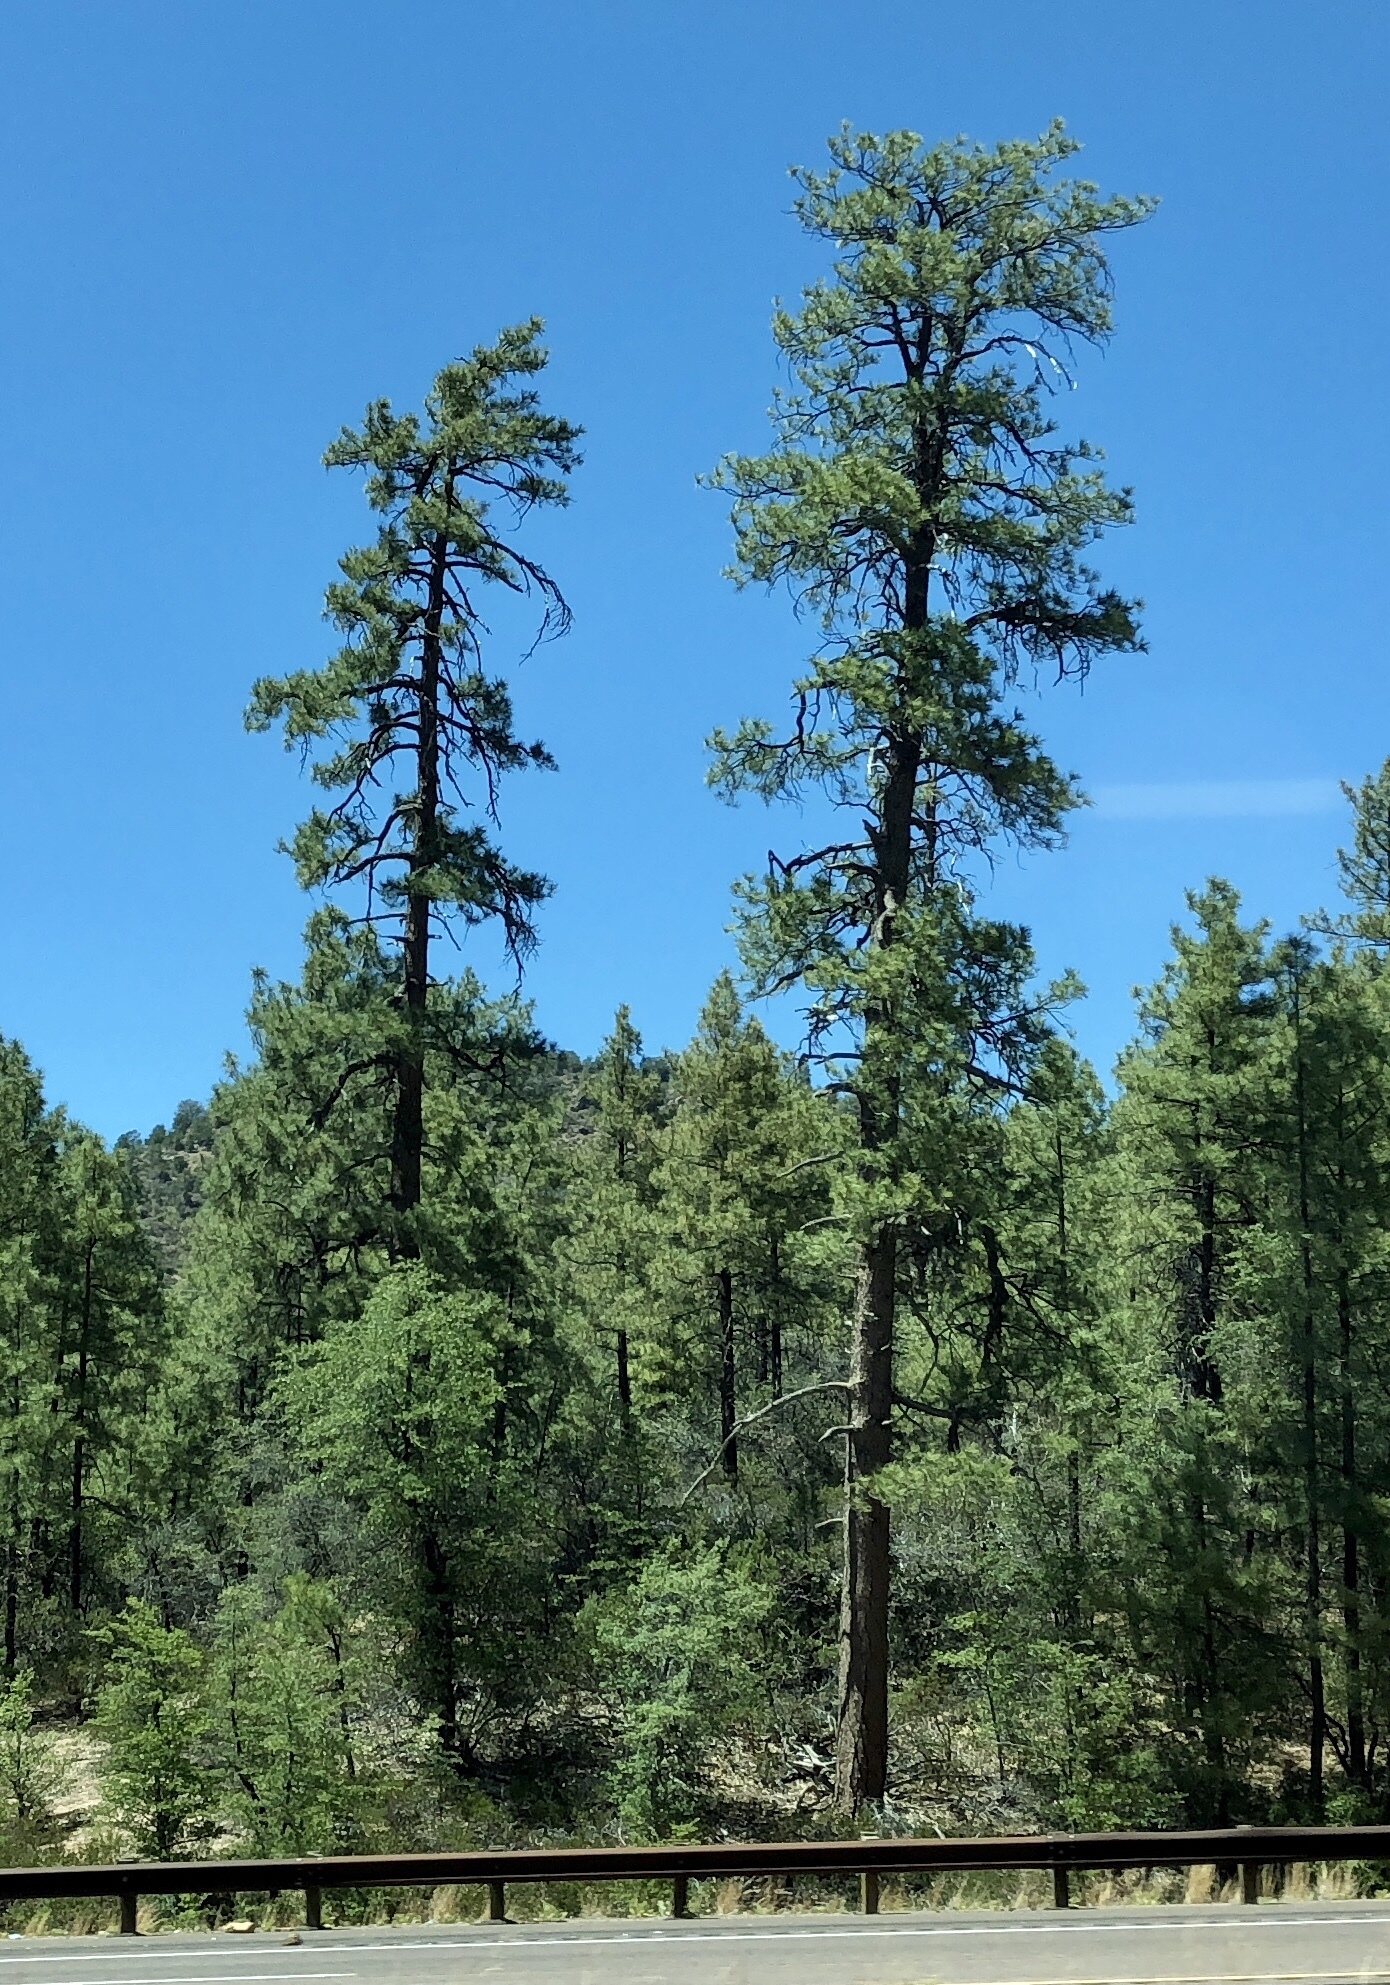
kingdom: Plantae
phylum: Tracheophyta
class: Pinopsida
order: Pinales
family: Pinaceae
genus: Pinus
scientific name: Pinus ponderosa
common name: Western yellow-pine
